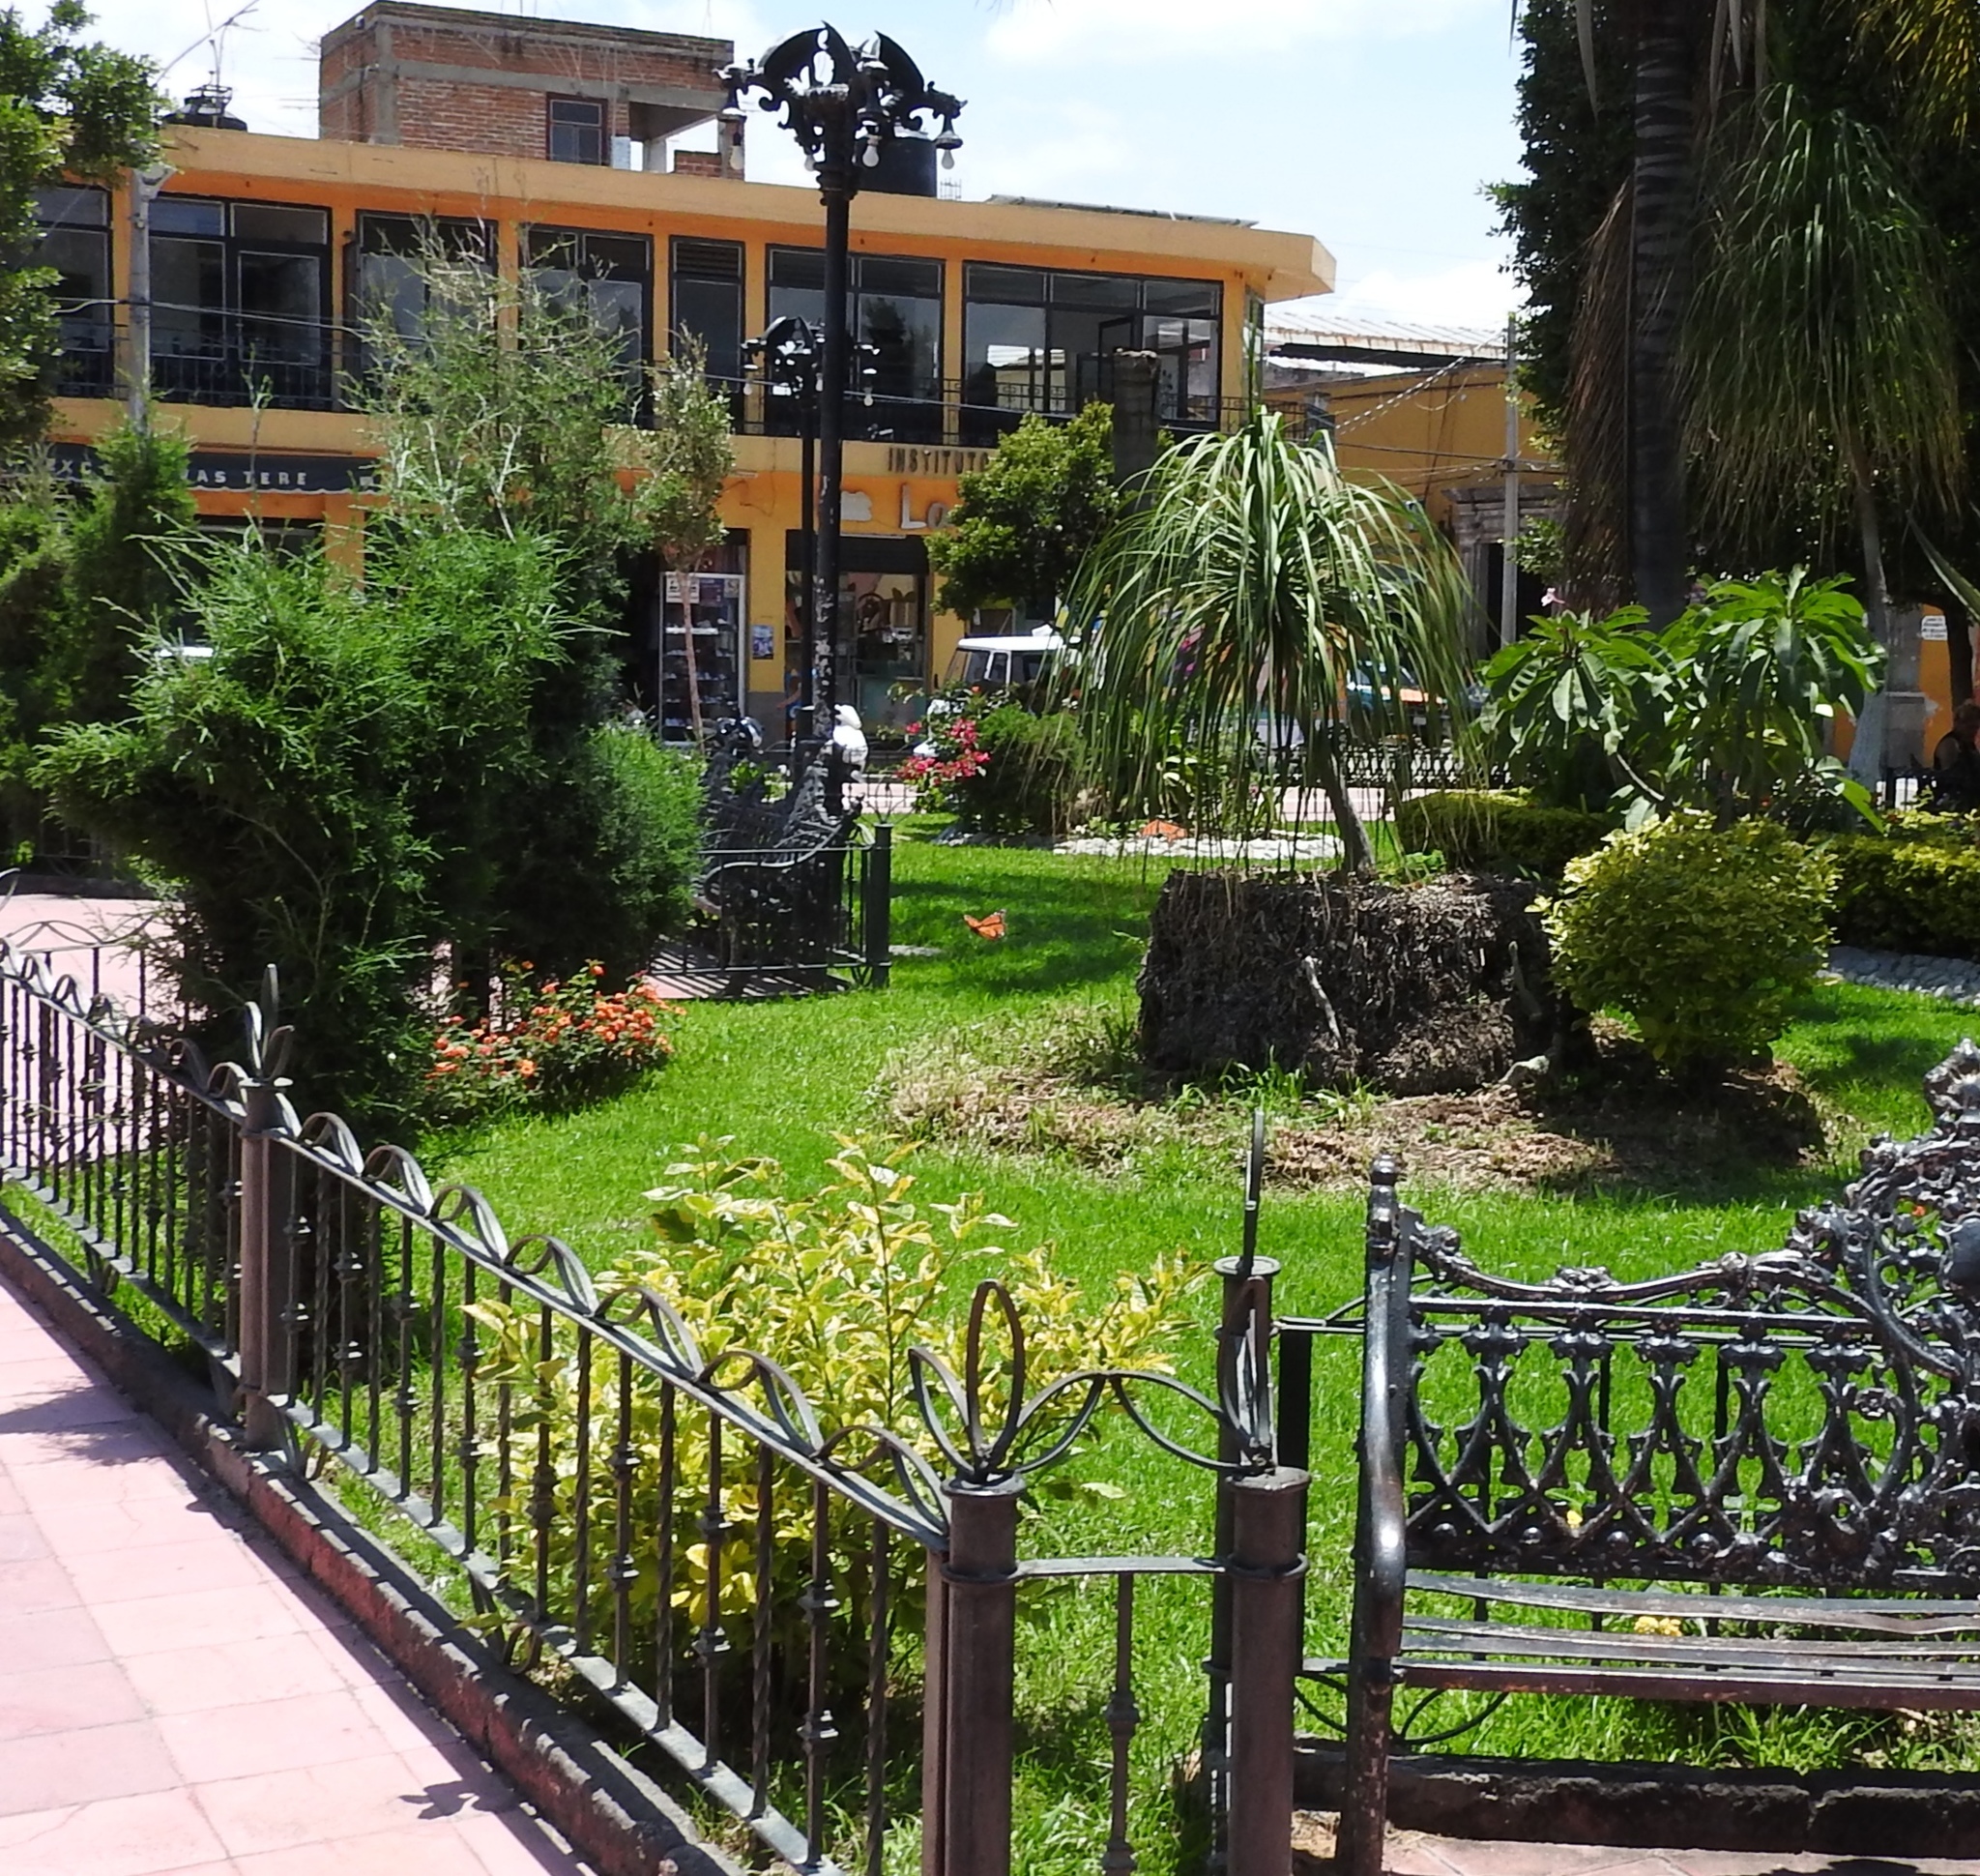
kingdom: Animalia
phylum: Arthropoda
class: Insecta
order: Lepidoptera
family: Nymphalidae
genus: Danaus
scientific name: Danaus plexippus
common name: Monarch
